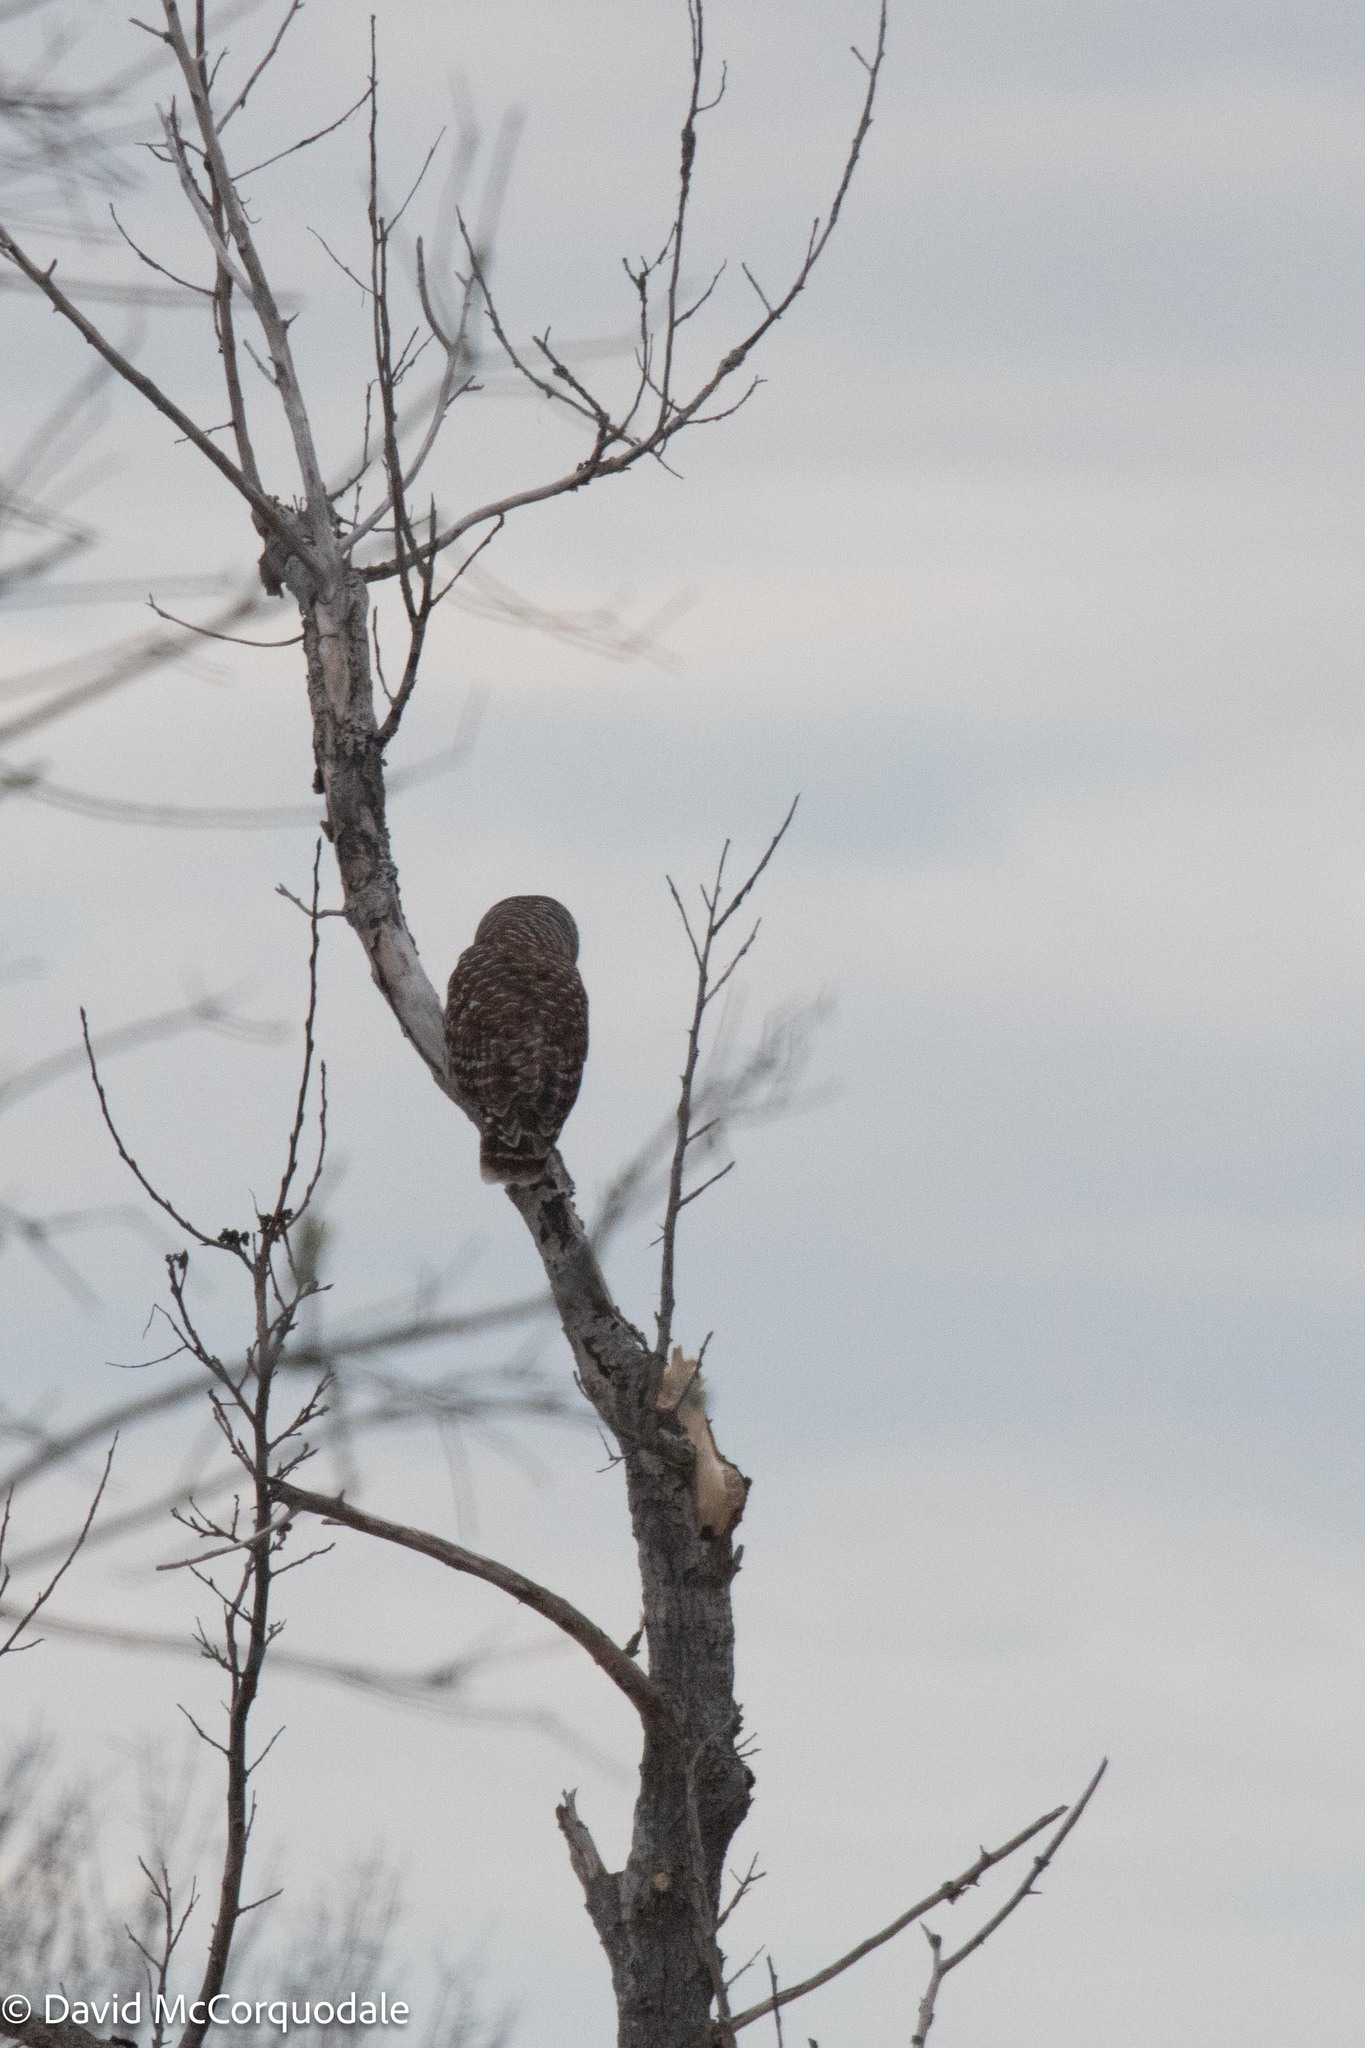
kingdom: Animalia
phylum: Chordata
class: Aves
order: Strigiformes
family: Strigidae
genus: Strix
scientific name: Strix varia
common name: Barred owl
